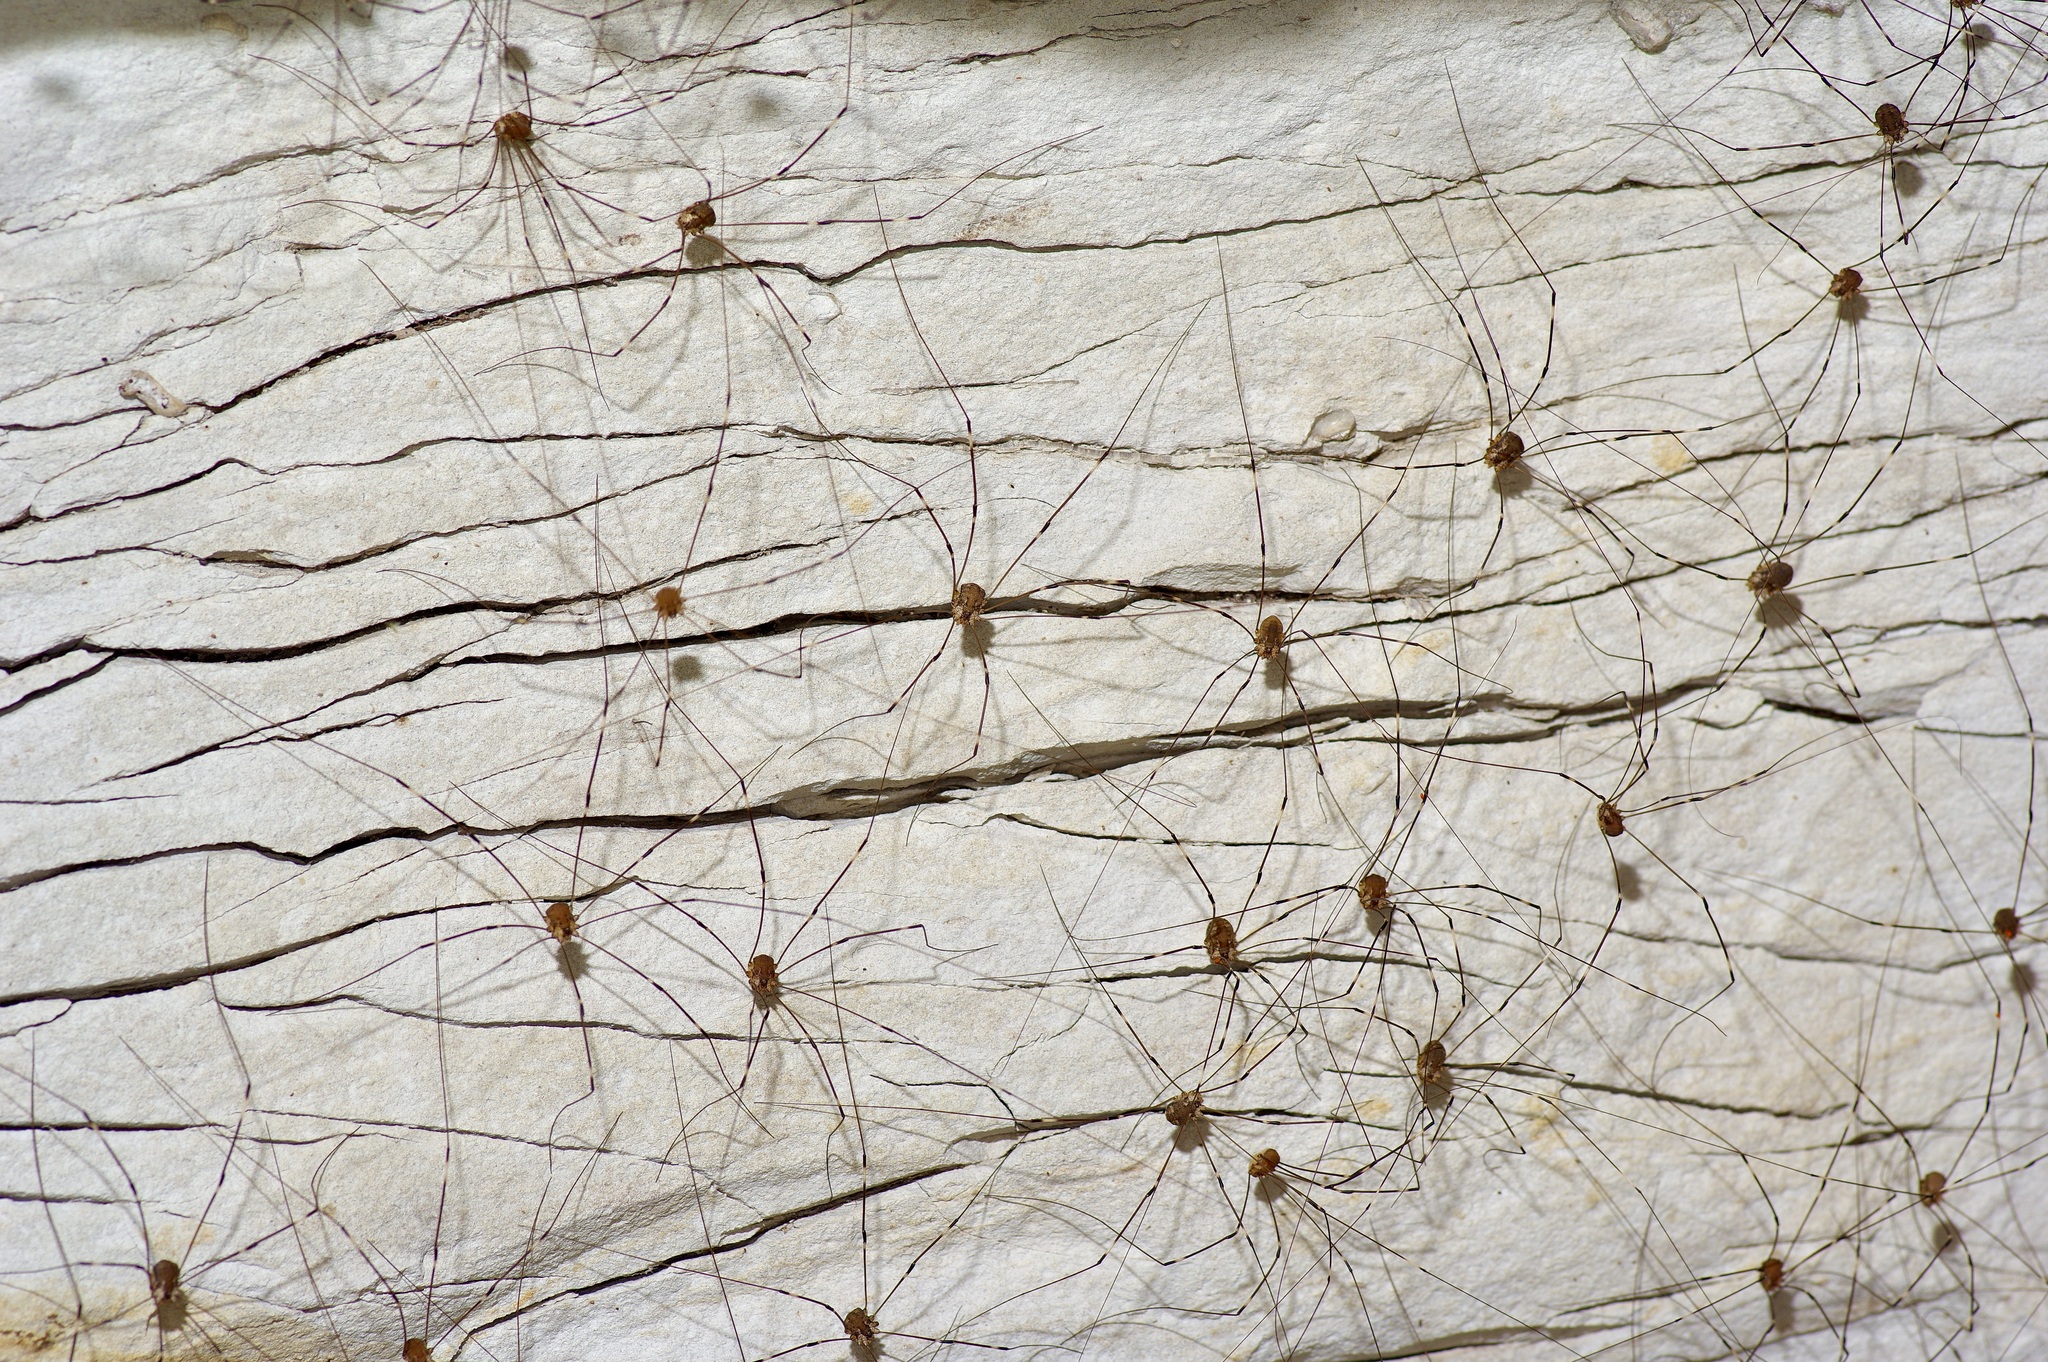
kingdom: Animalia
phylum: Arthropoda
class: Arachnida
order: Opiliones
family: Sclerosomatidae
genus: Leiobunum
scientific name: Leiobunum townsendi
